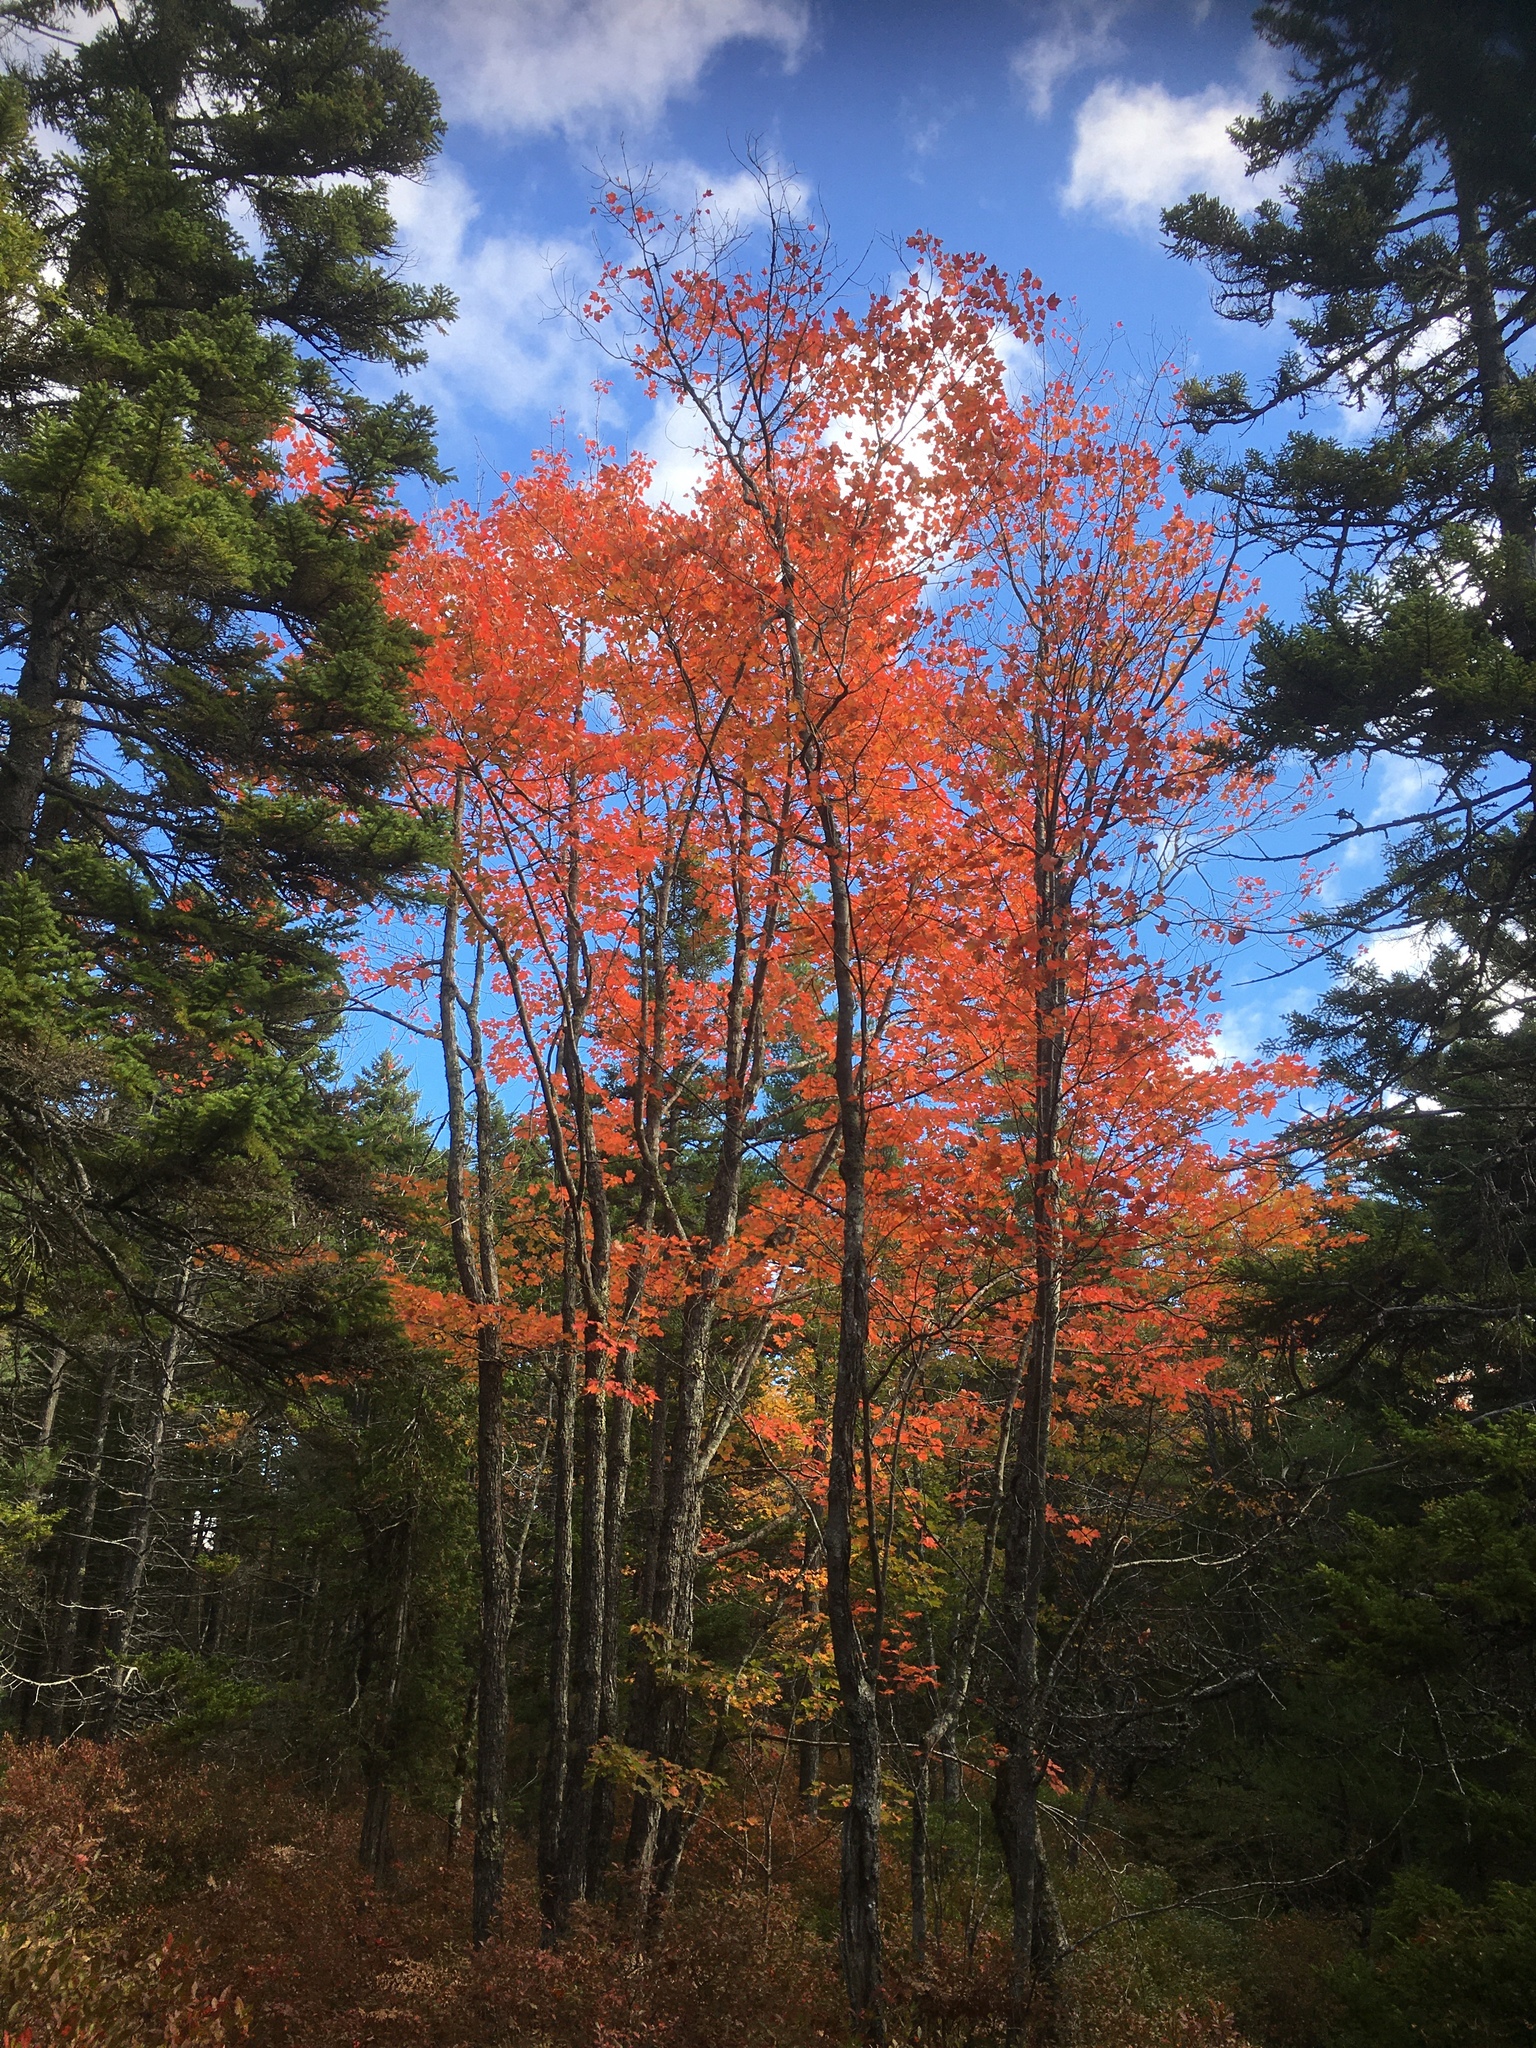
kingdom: Plantae
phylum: Tracheophyta
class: Magnoliopsida
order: Sapindales
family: Sapindaceae
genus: Acer
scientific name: Acer rubrum
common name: Red maple
